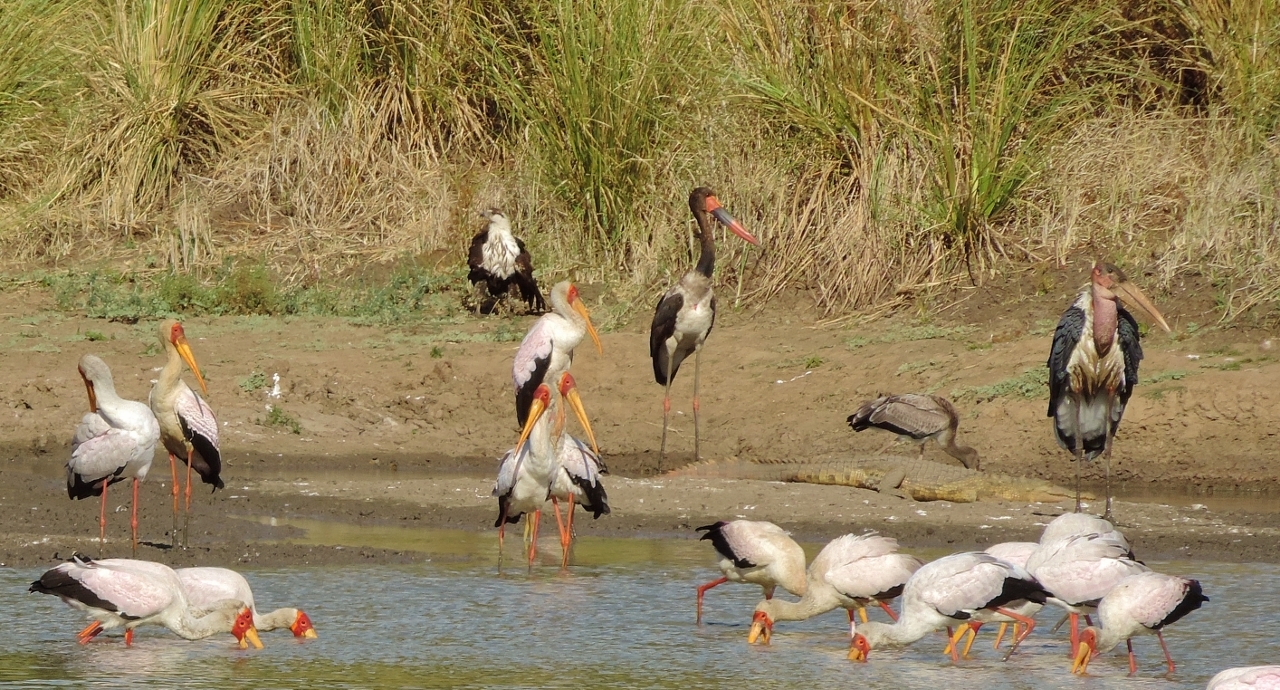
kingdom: Animalia
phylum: Chordata
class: Aves
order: Accipitriformes
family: Accipitridae
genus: Haliaeetus
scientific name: Haliaeetus vocifer
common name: African fish eagle
